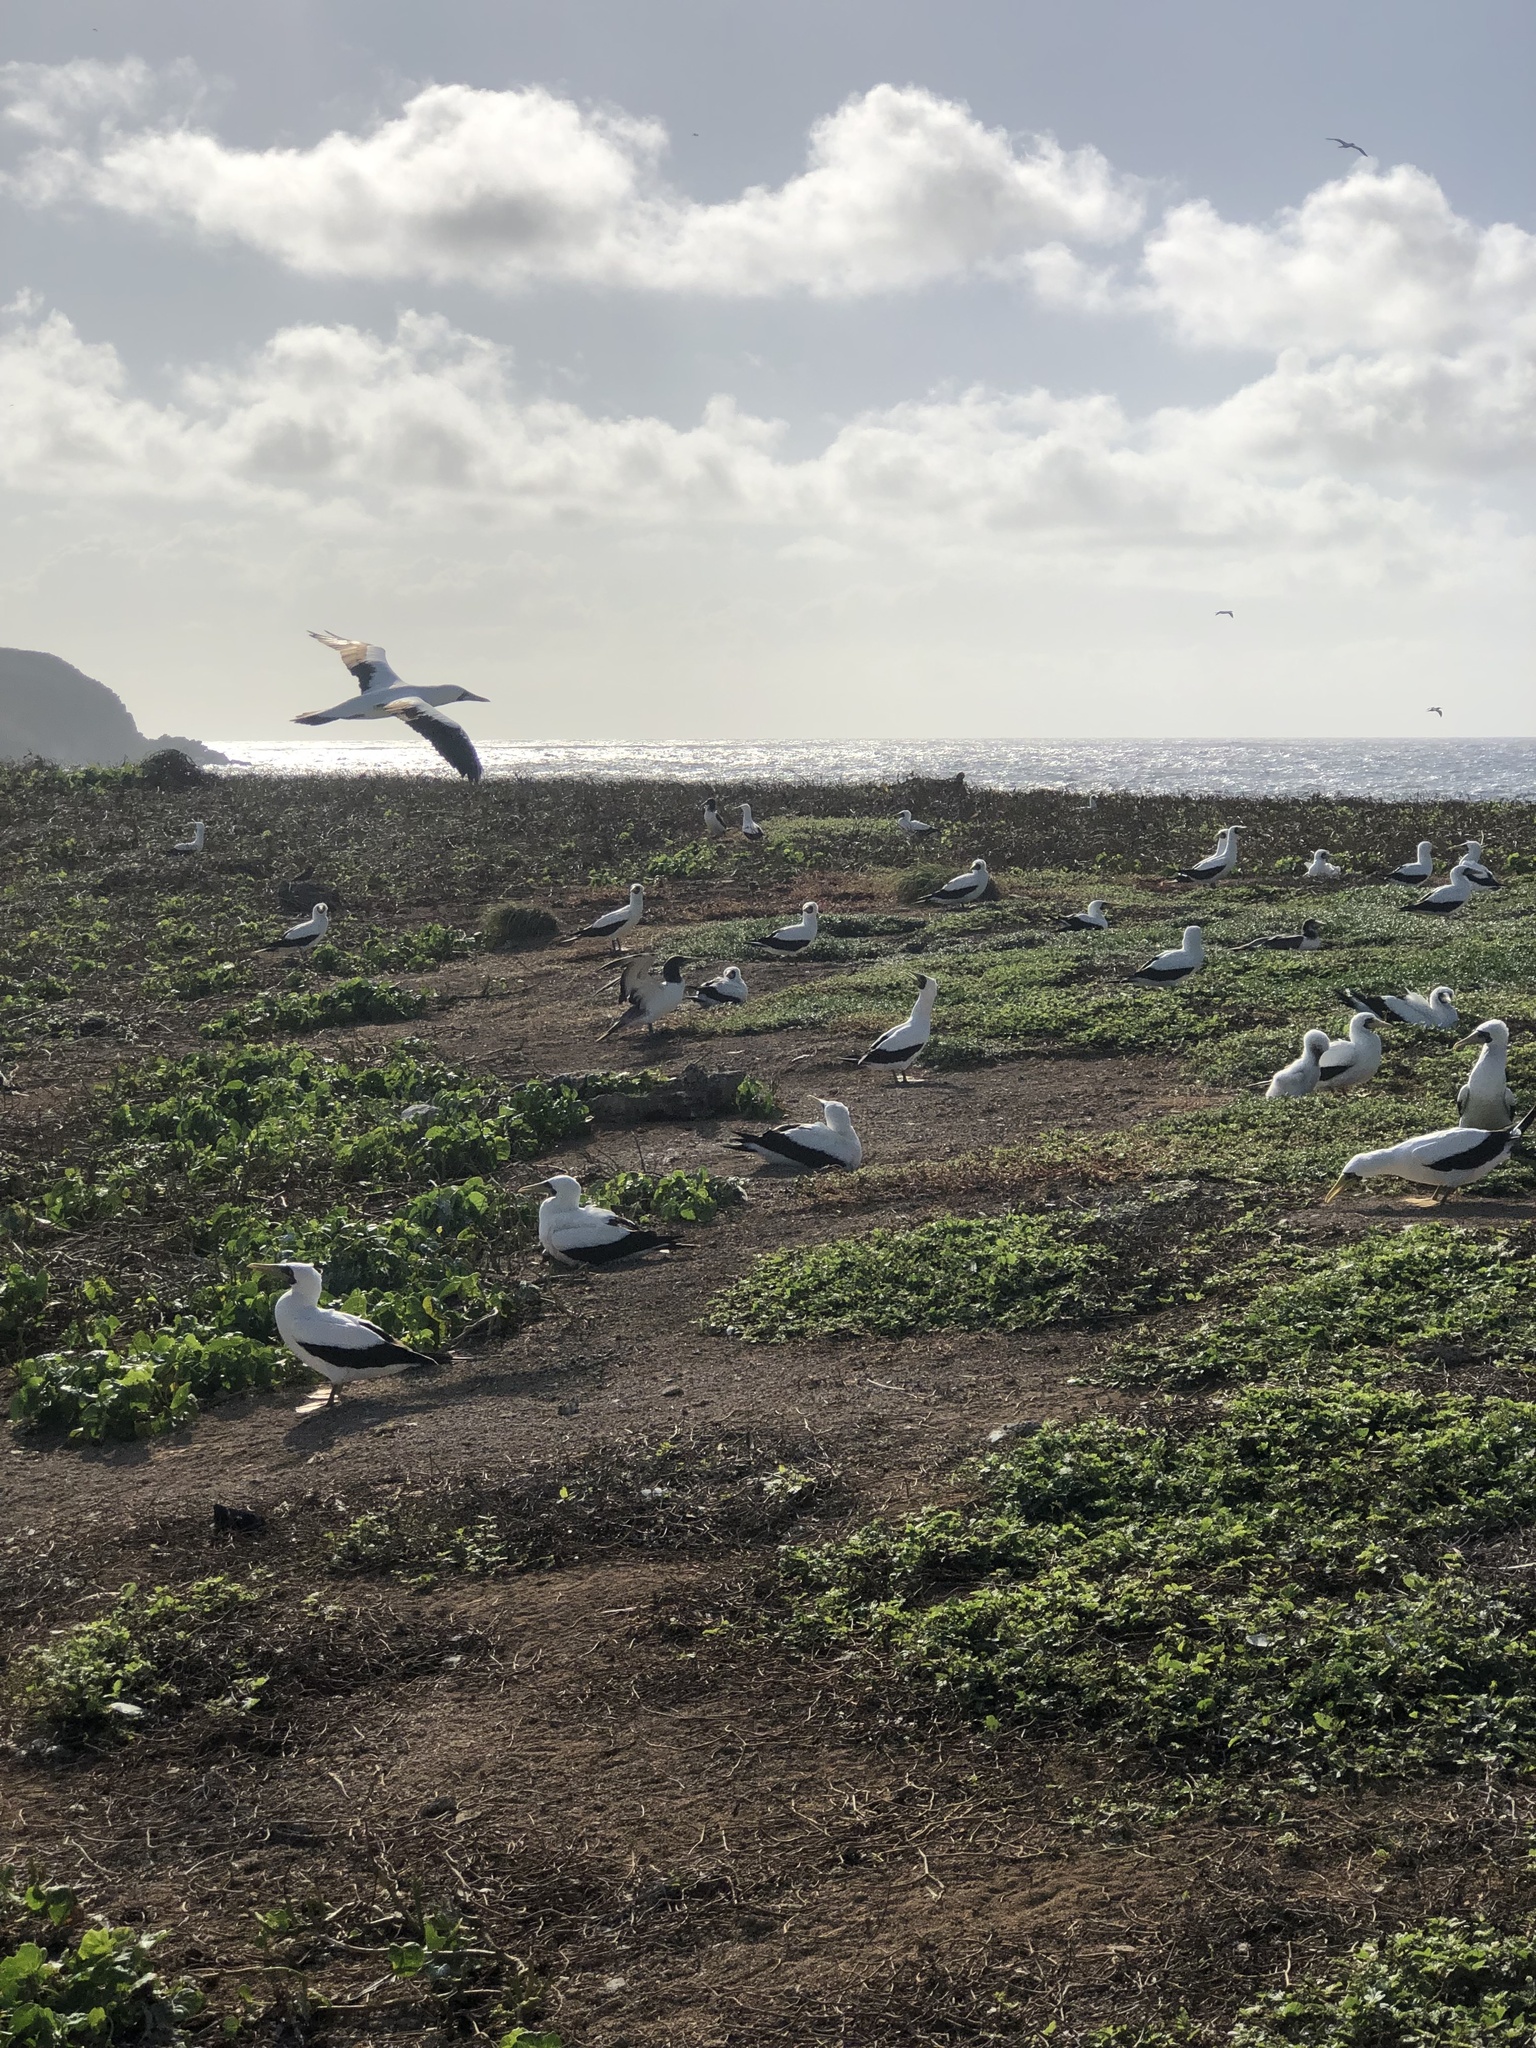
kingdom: Animalia
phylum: Chordata
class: Aves
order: Suliformes
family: Sulidae
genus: Sula
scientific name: Sula dactylatra
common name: Masked booby
